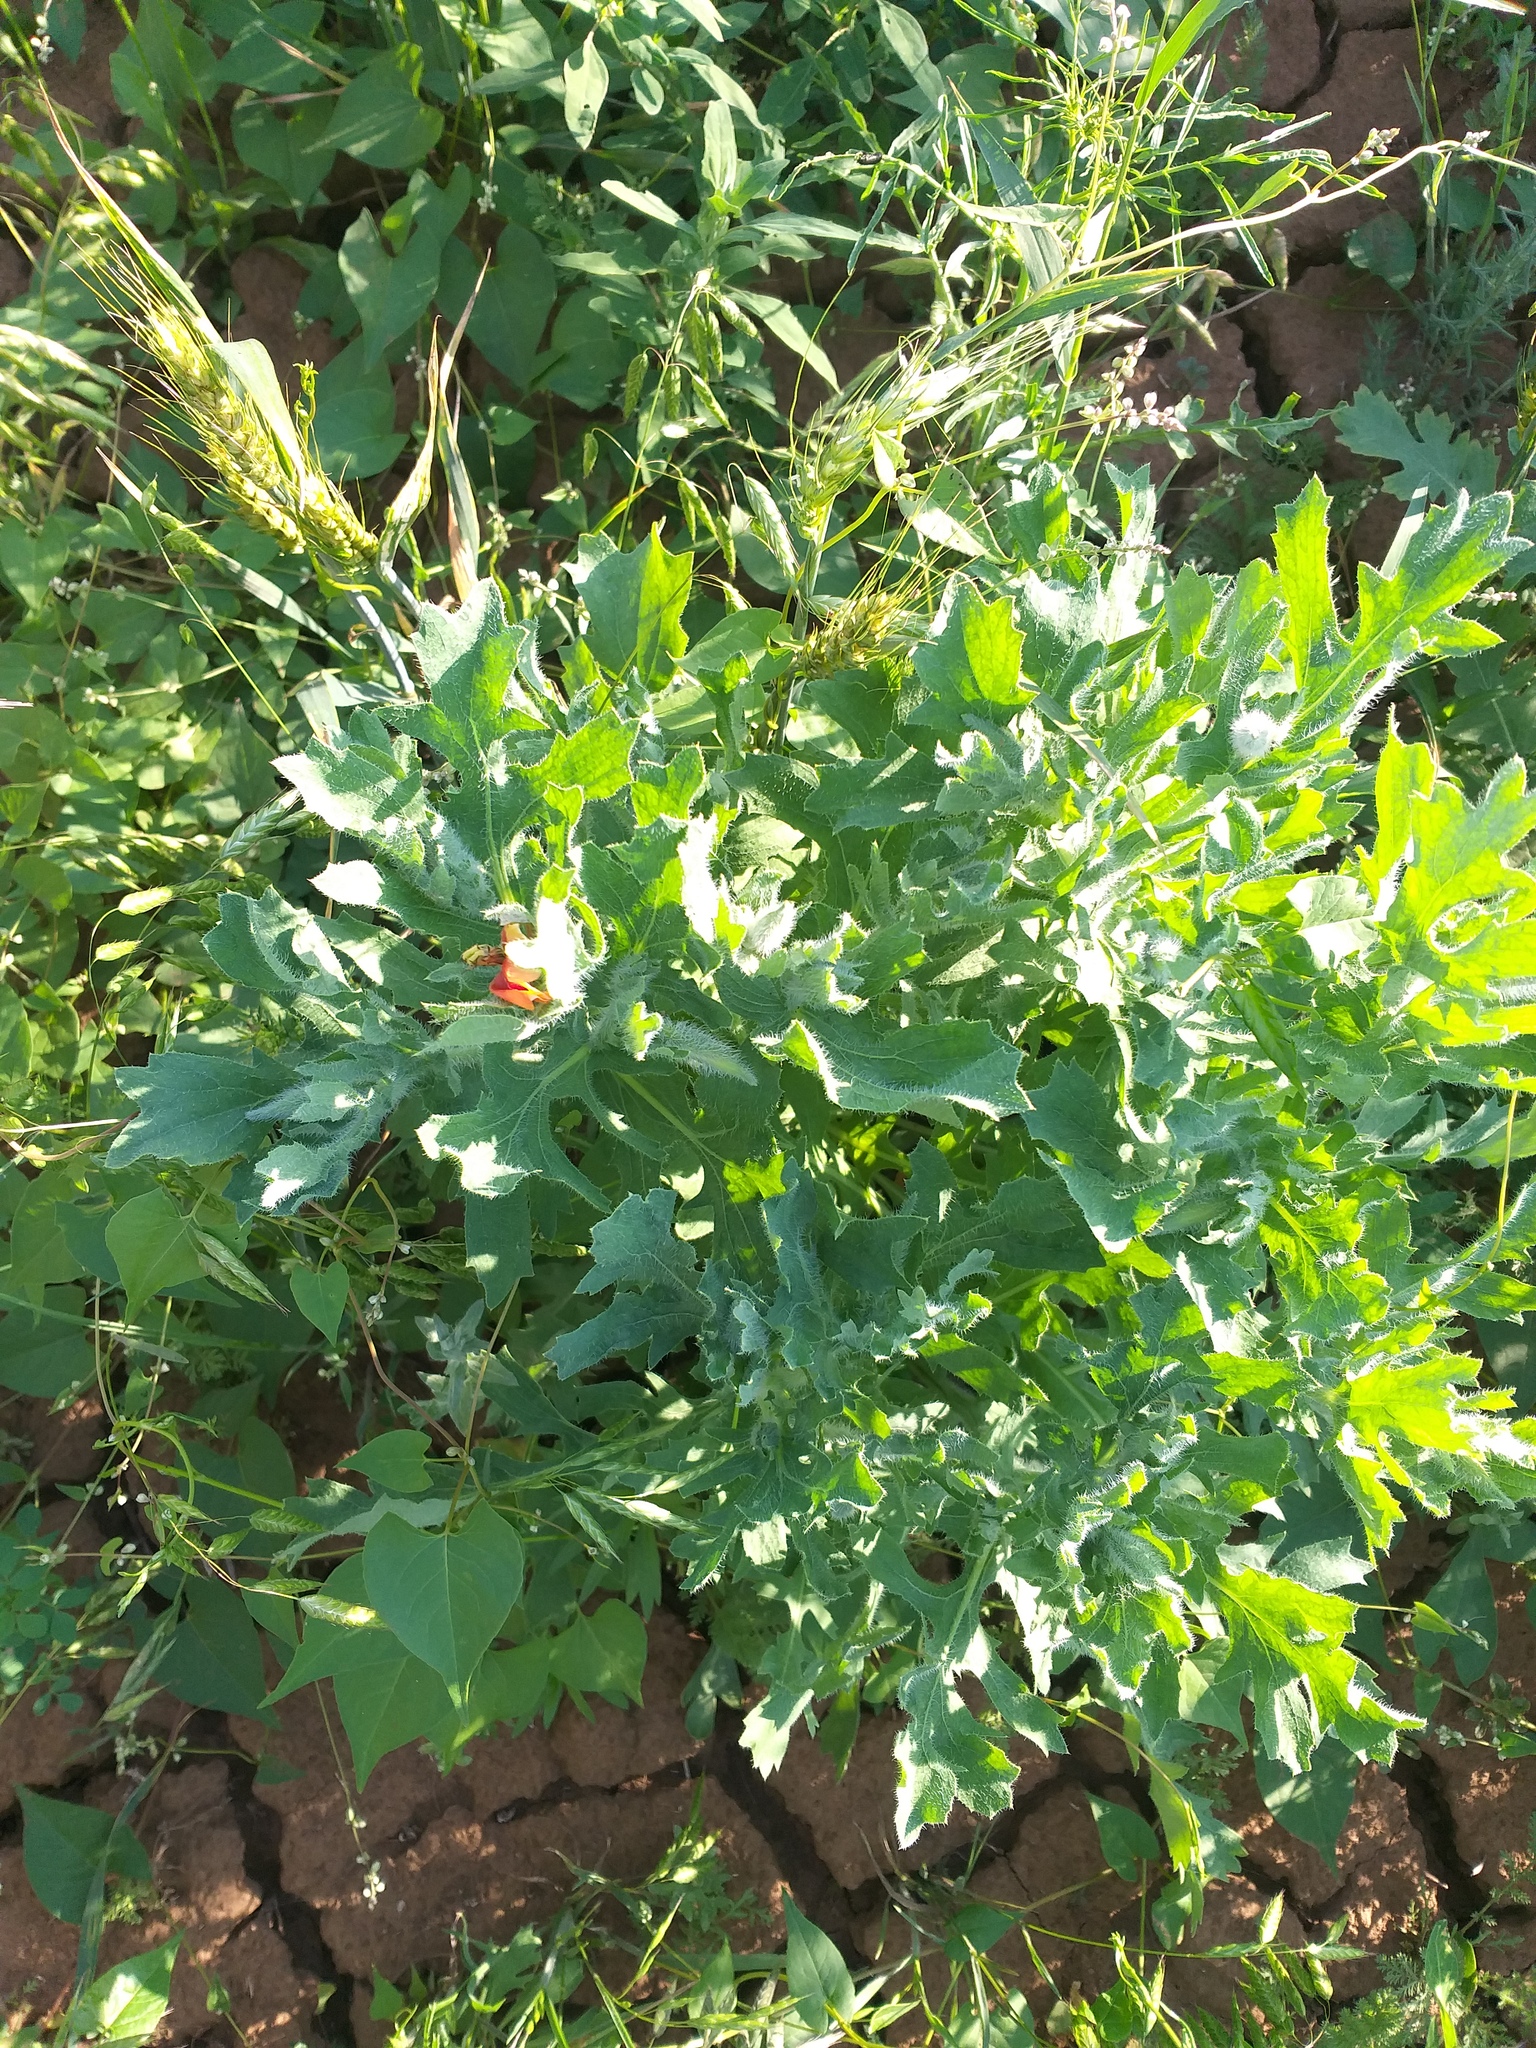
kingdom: Plantae
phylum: Tracheophyta
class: Magnoliopsida
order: Ranunculales
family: Papaveraceae
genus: Glaucium
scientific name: Glaucium corniculatum
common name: Red horned-poppy
